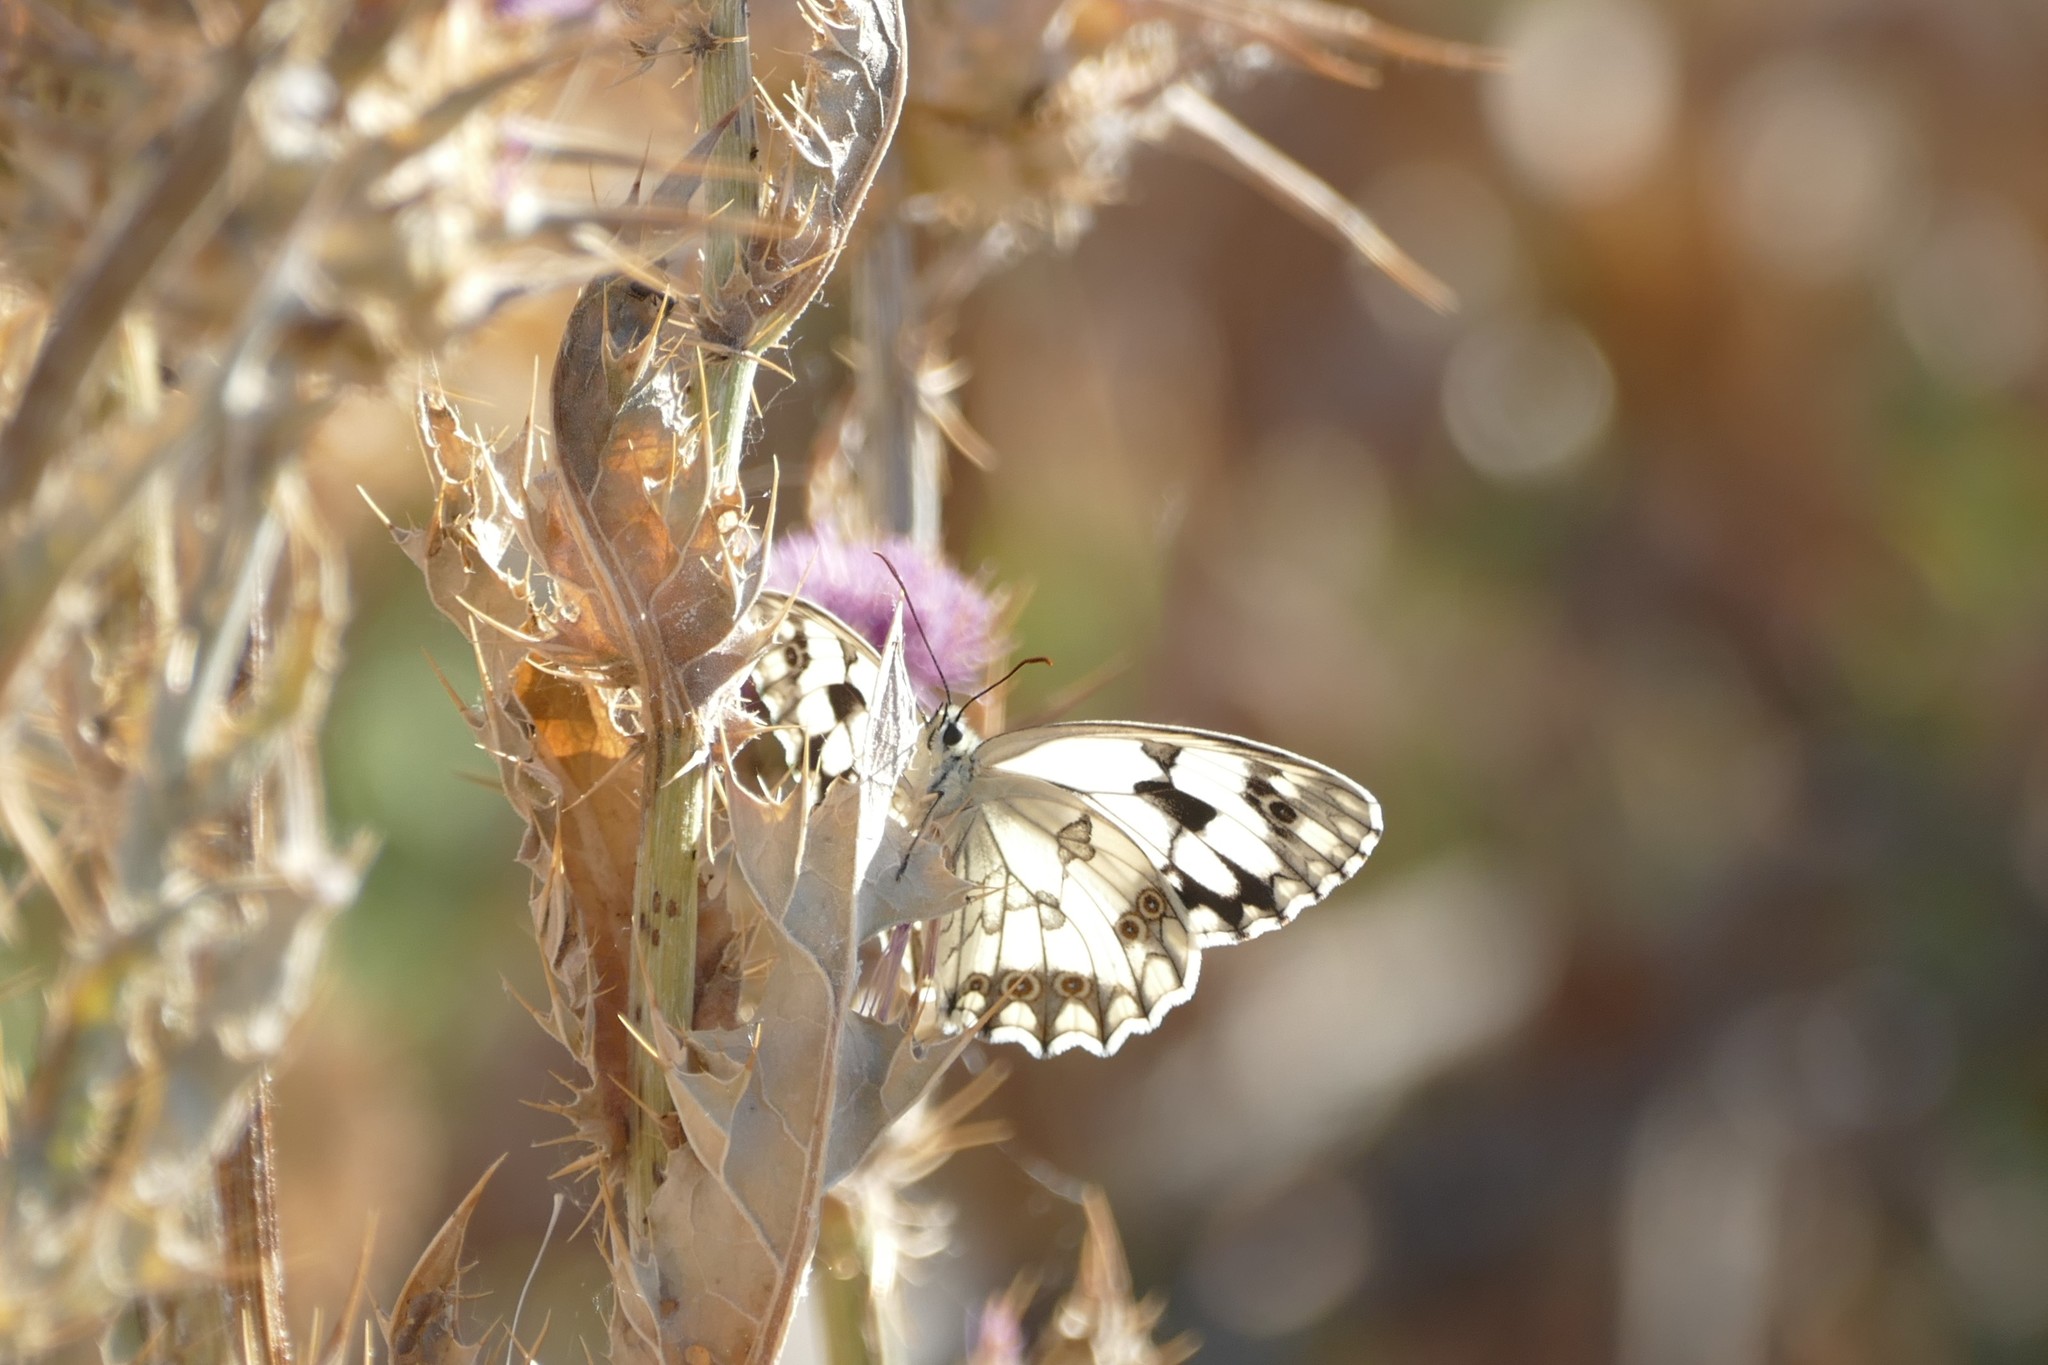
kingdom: Animalia
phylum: Arthropoda
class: Insecta
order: Lepidoptera
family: Nymphalidae
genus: Melanargia
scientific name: Melanargia lachesis
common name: Iberian marbled white
